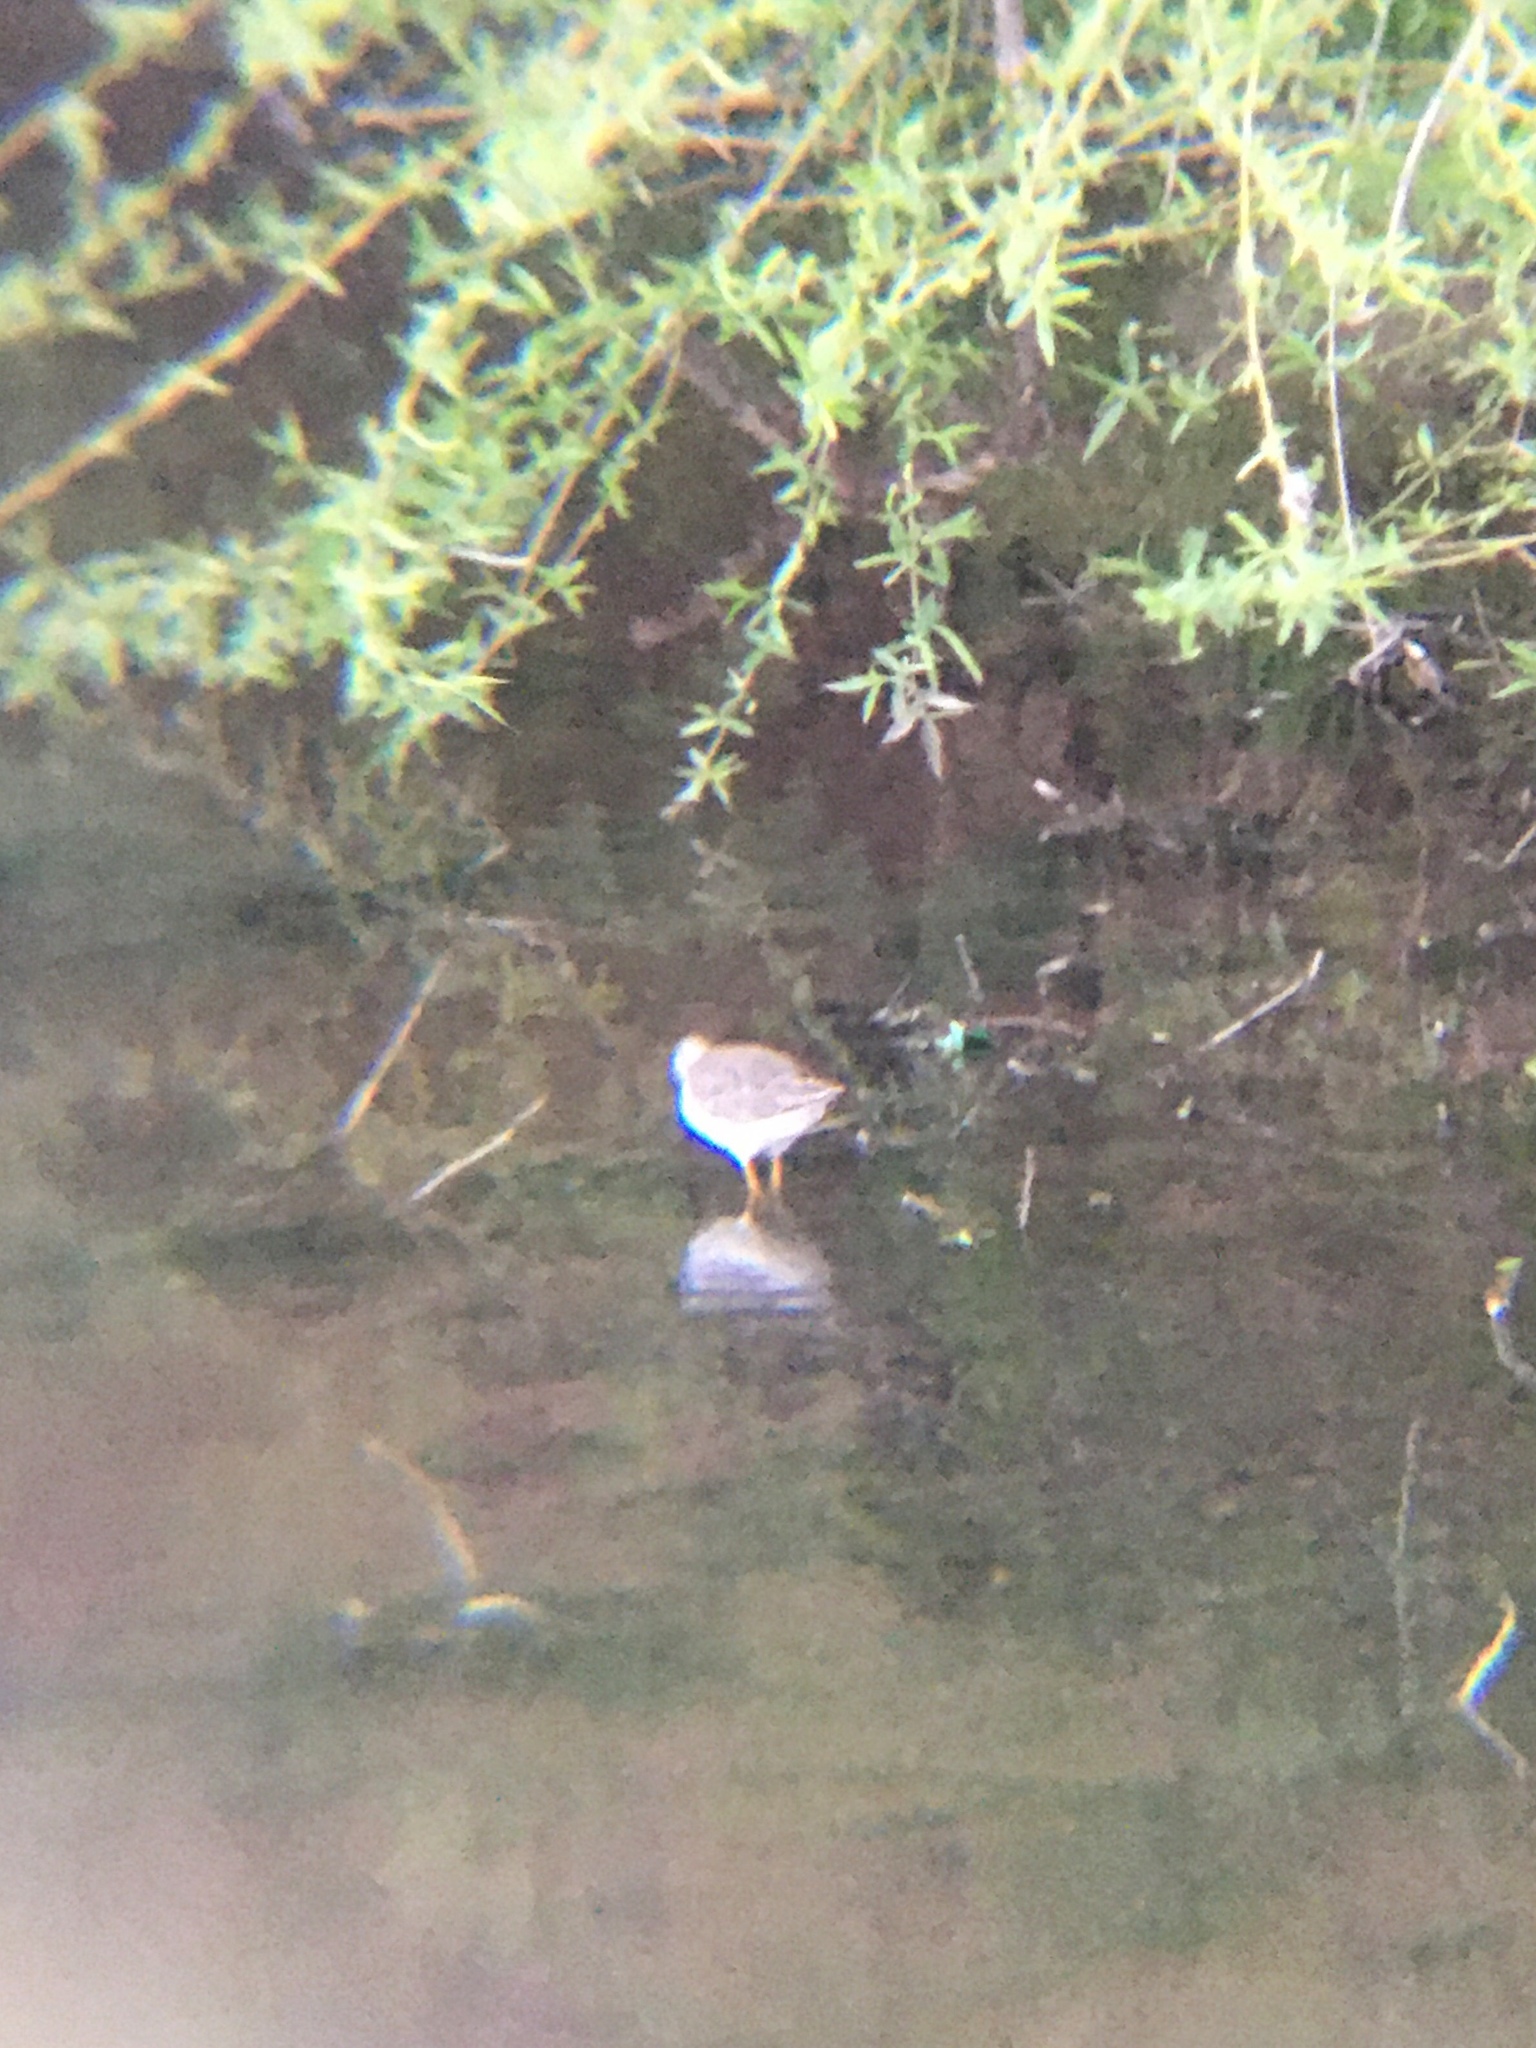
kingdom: Animalia
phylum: Chordata
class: Aves
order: Charadriiformes
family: Scolopacidae
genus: Tringa
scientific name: Tringa flavipes
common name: Lesser yellowlegs
